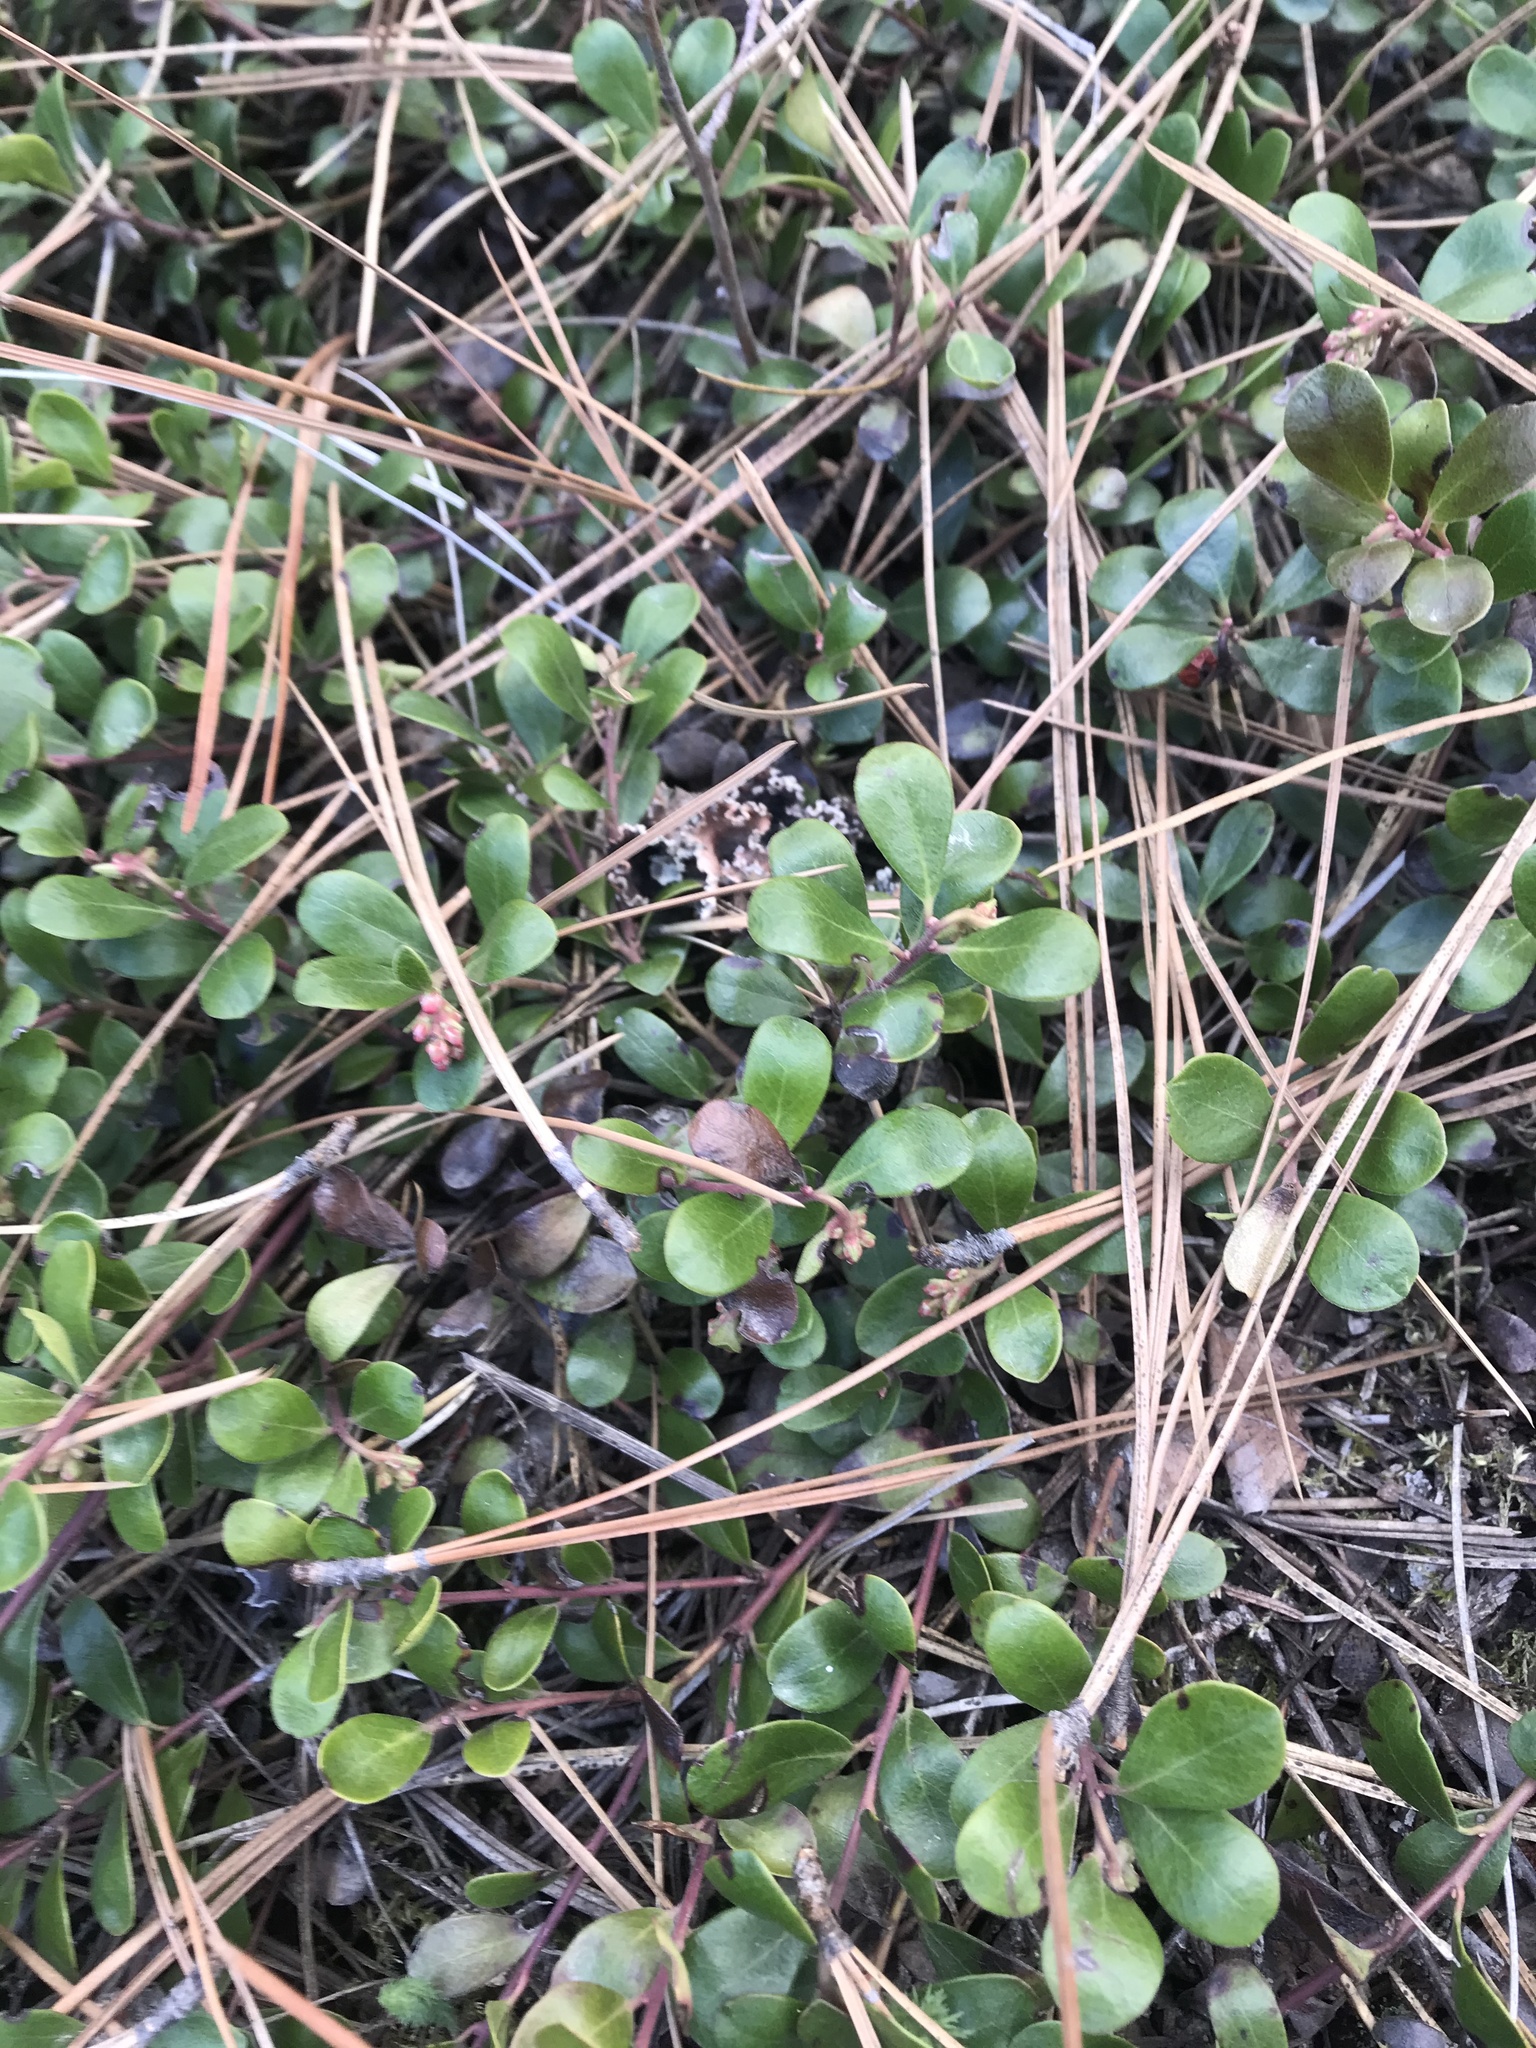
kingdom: Plantae
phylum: Tracheophyta
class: Magnoliopsida
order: Ericales
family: Ericaceae
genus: Arctostaphylos
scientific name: Arctostaphylos uva-ursi
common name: Bearberry
